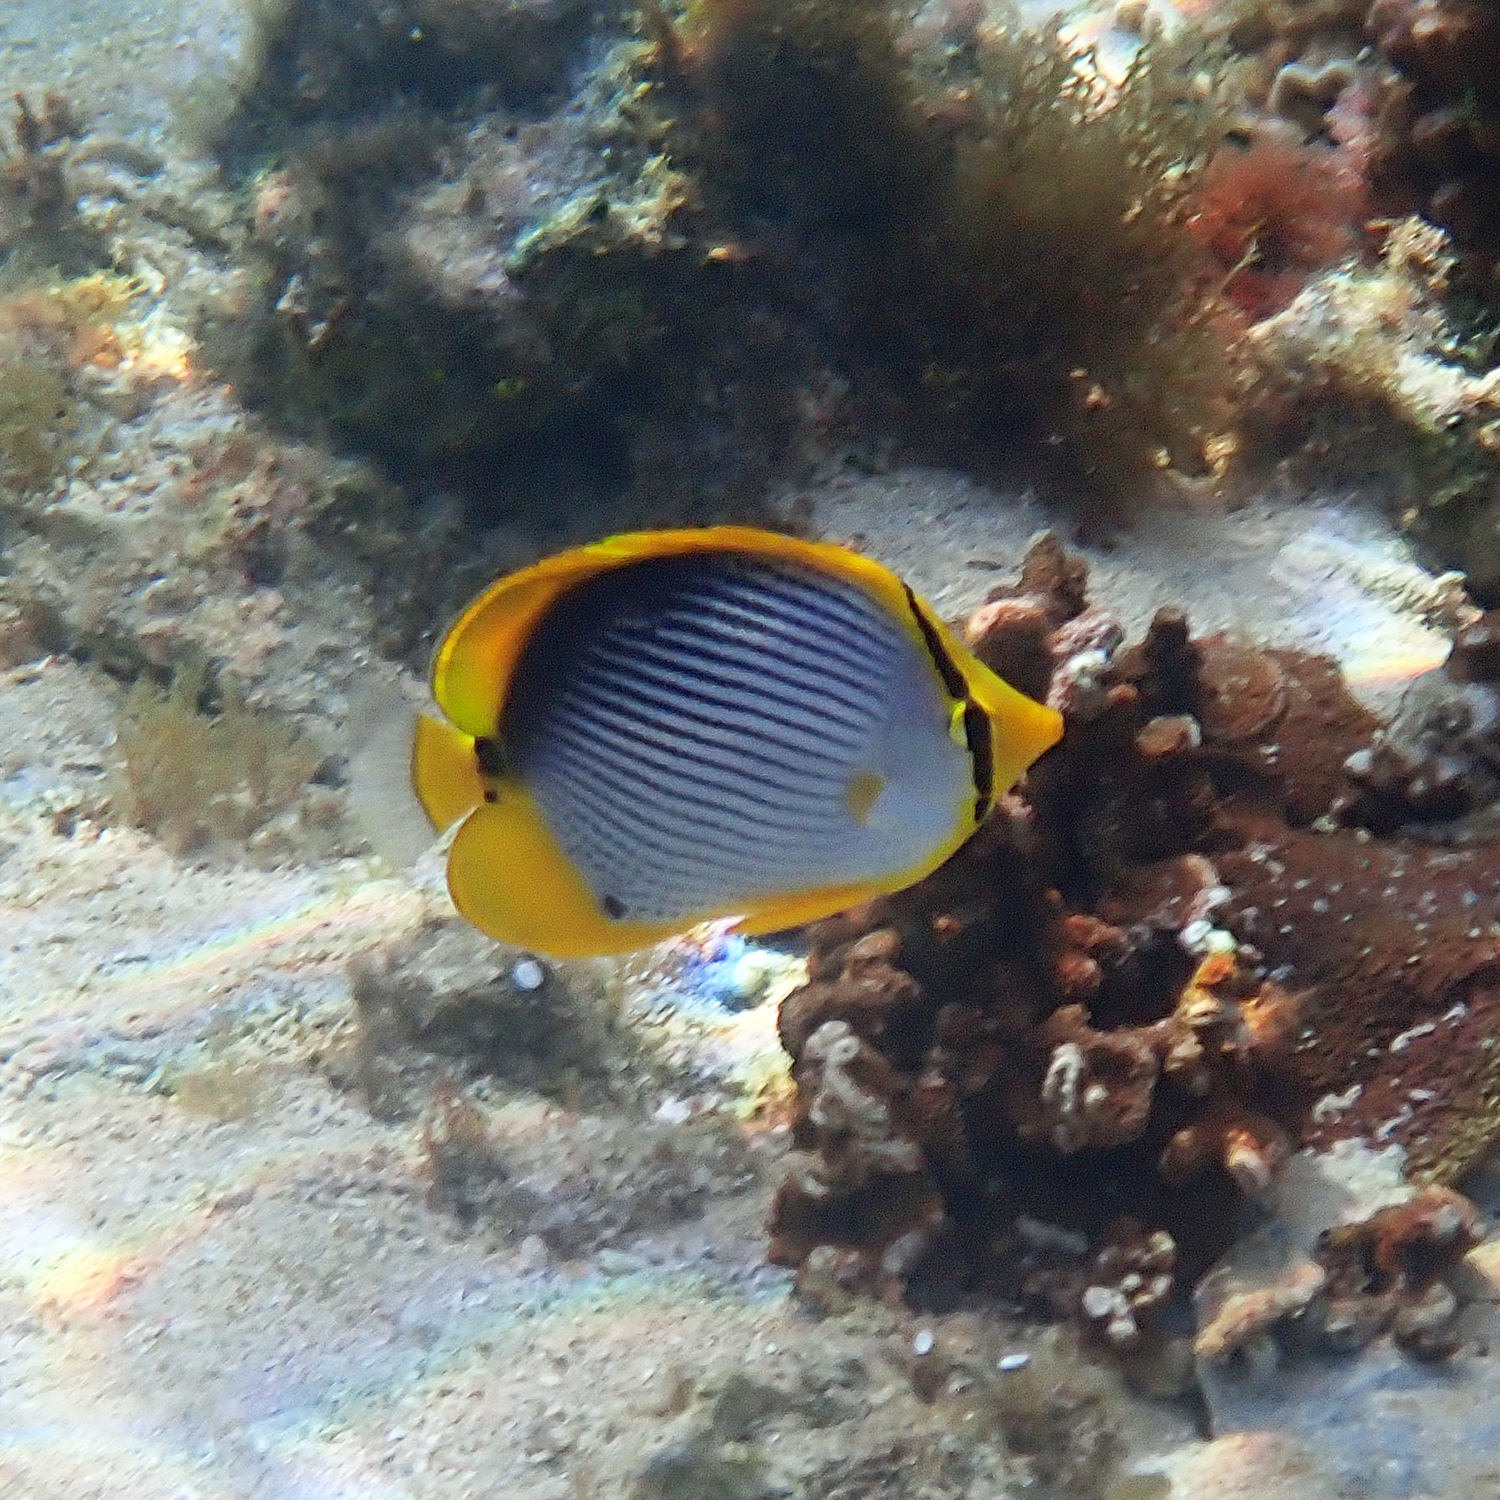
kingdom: Animalia
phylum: Chordata
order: Perciformes
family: Chaetodontidae
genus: Chaetodon
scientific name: Chaetodon melannotus
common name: Blackback butterflyfish
